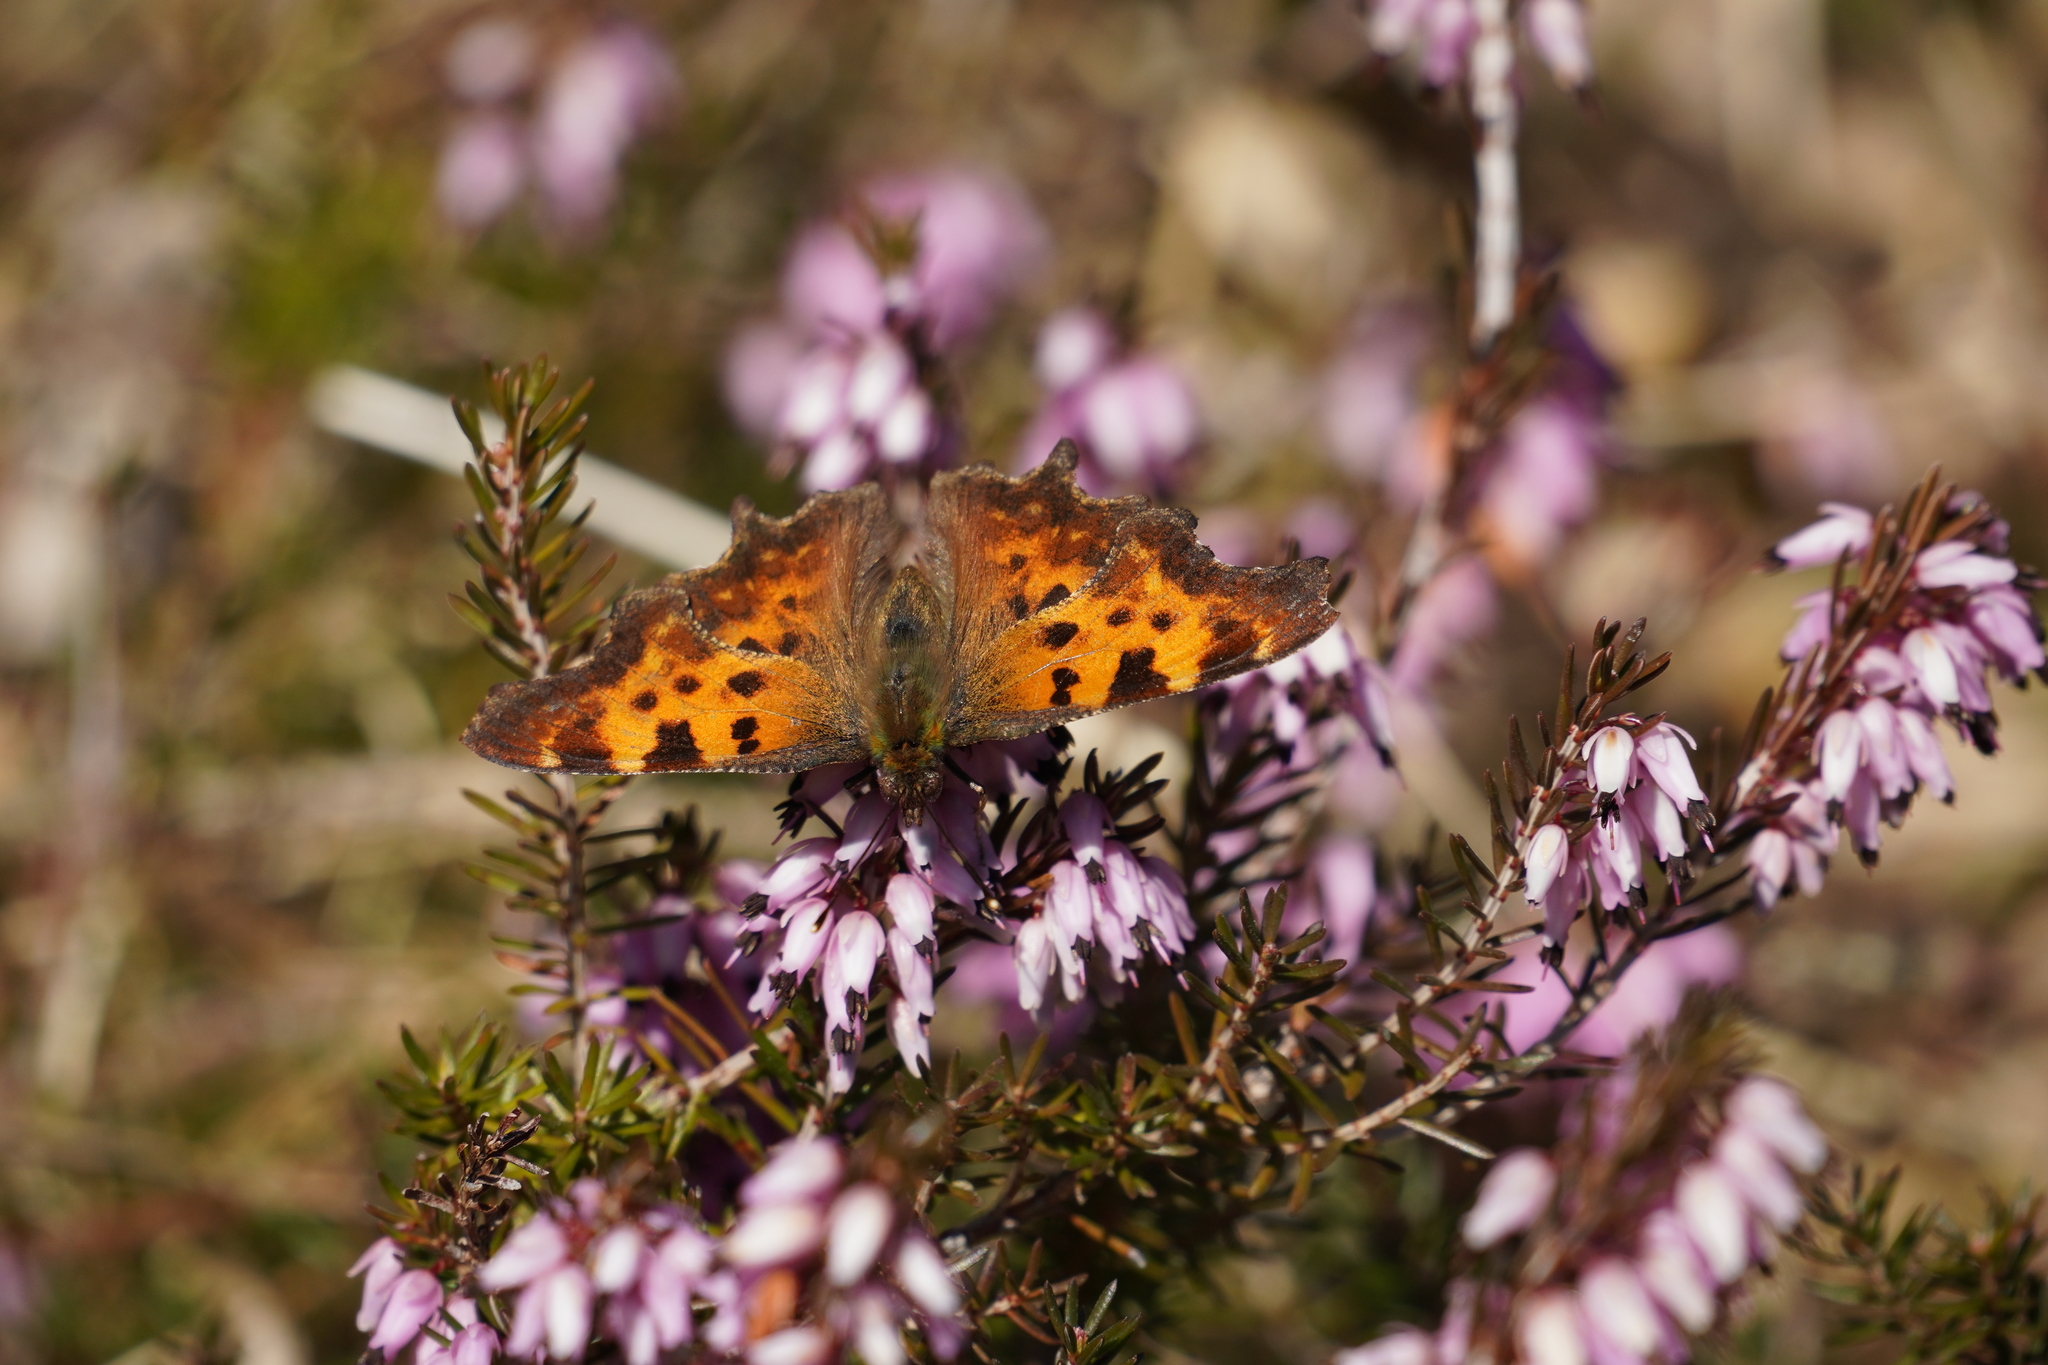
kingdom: Animalia
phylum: Arthropoda
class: Insecta
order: Lepidoptera
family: Nymphalidae
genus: Polygonia
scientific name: Polygonia c-album
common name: Comma
